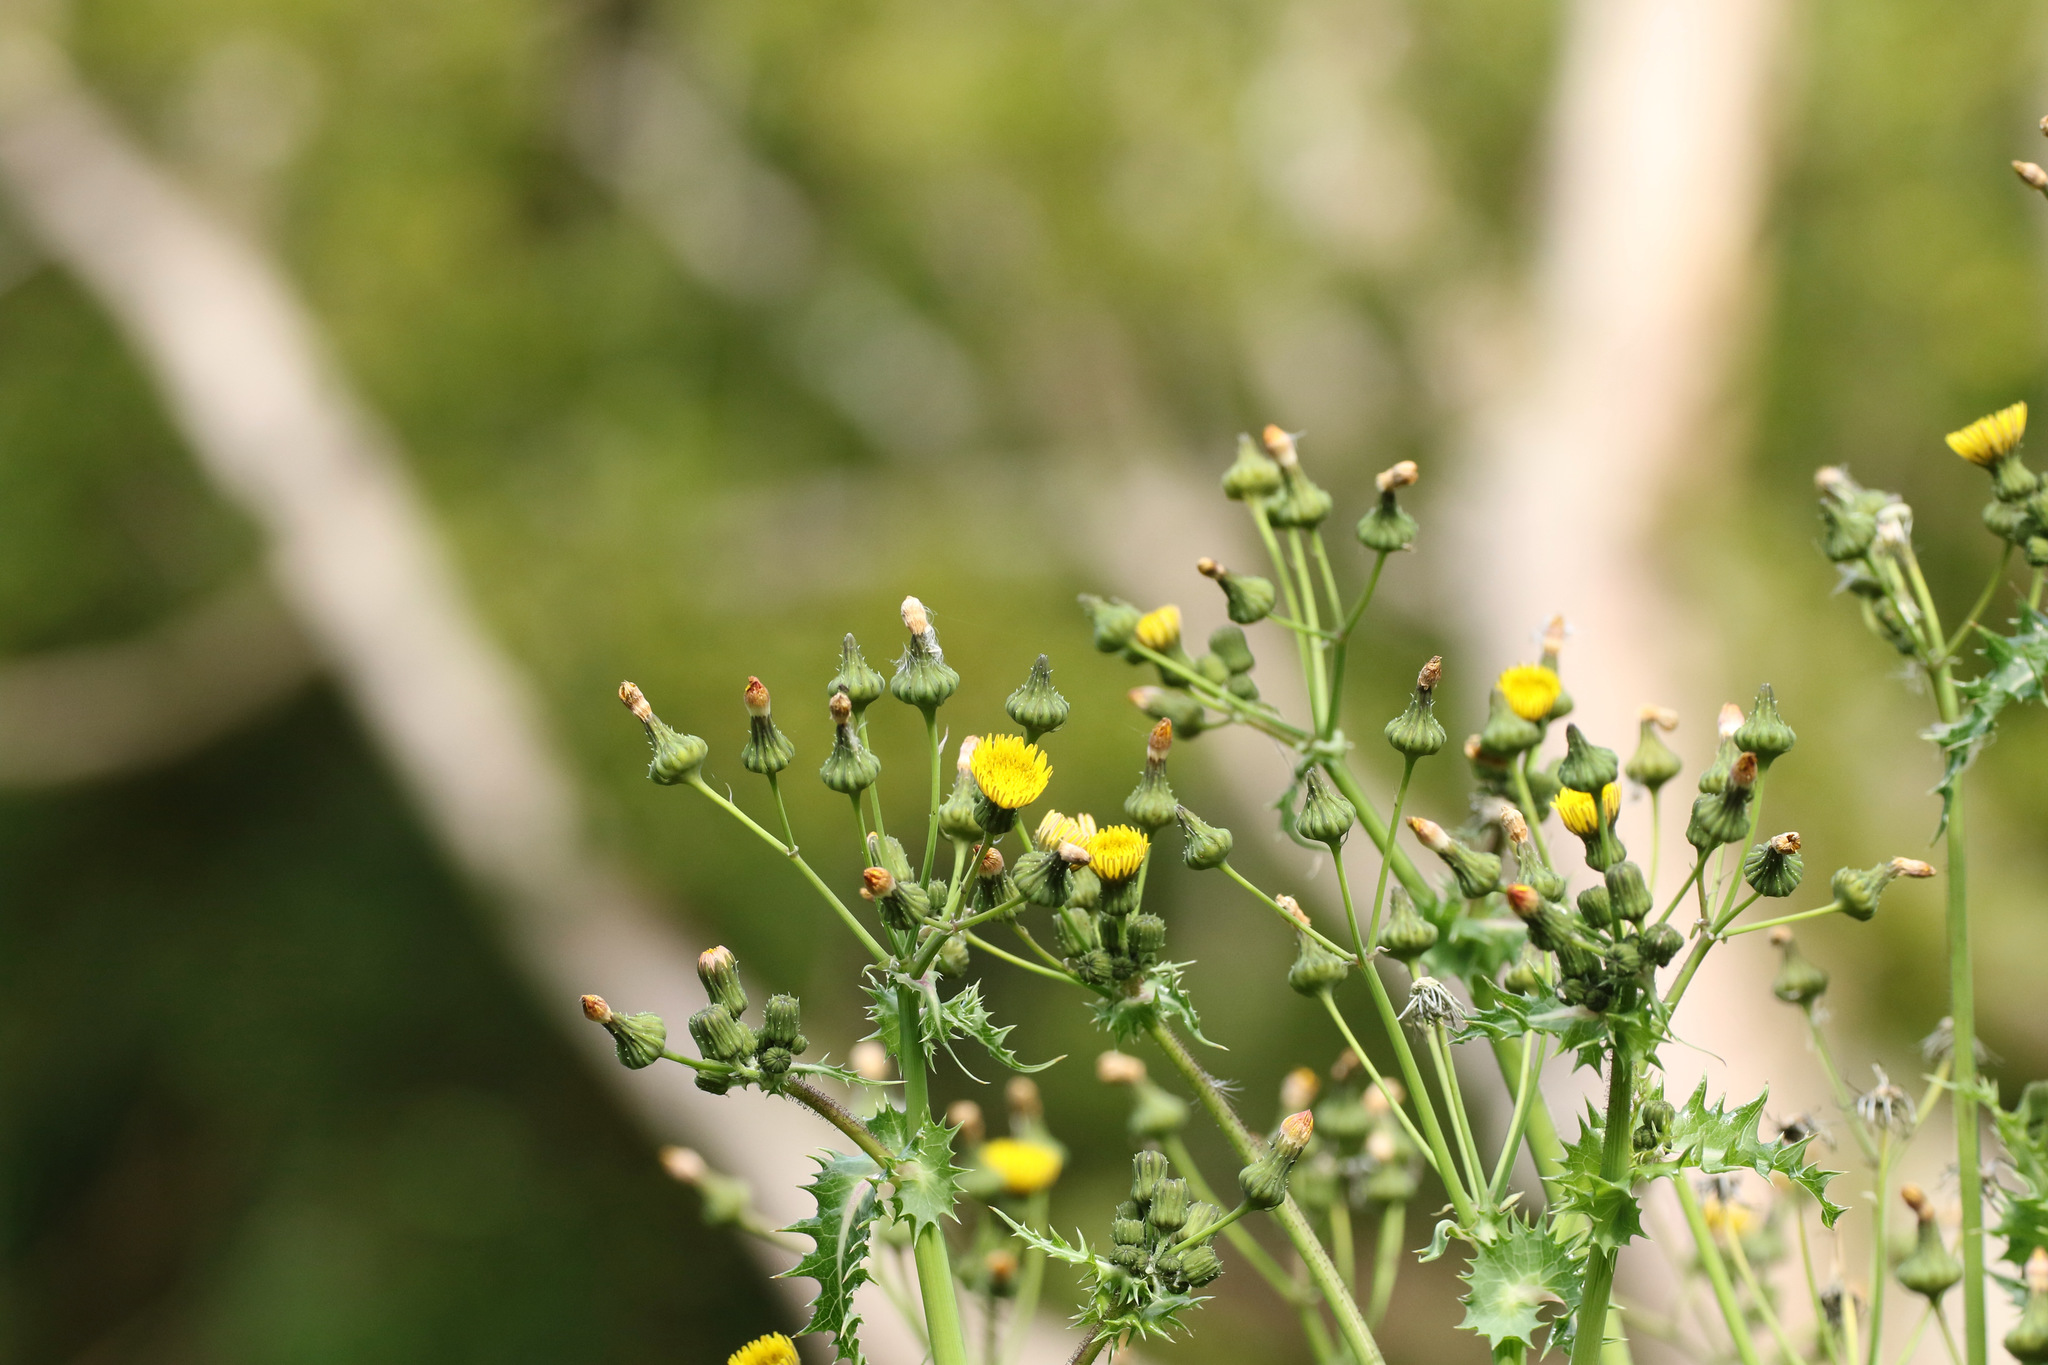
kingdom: Plantae
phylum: Tracheophyta
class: Magnoliopsida
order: Asterales
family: Asteraceae
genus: Sonchus
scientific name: Sonchus asper
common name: Prickly sow-thistle
